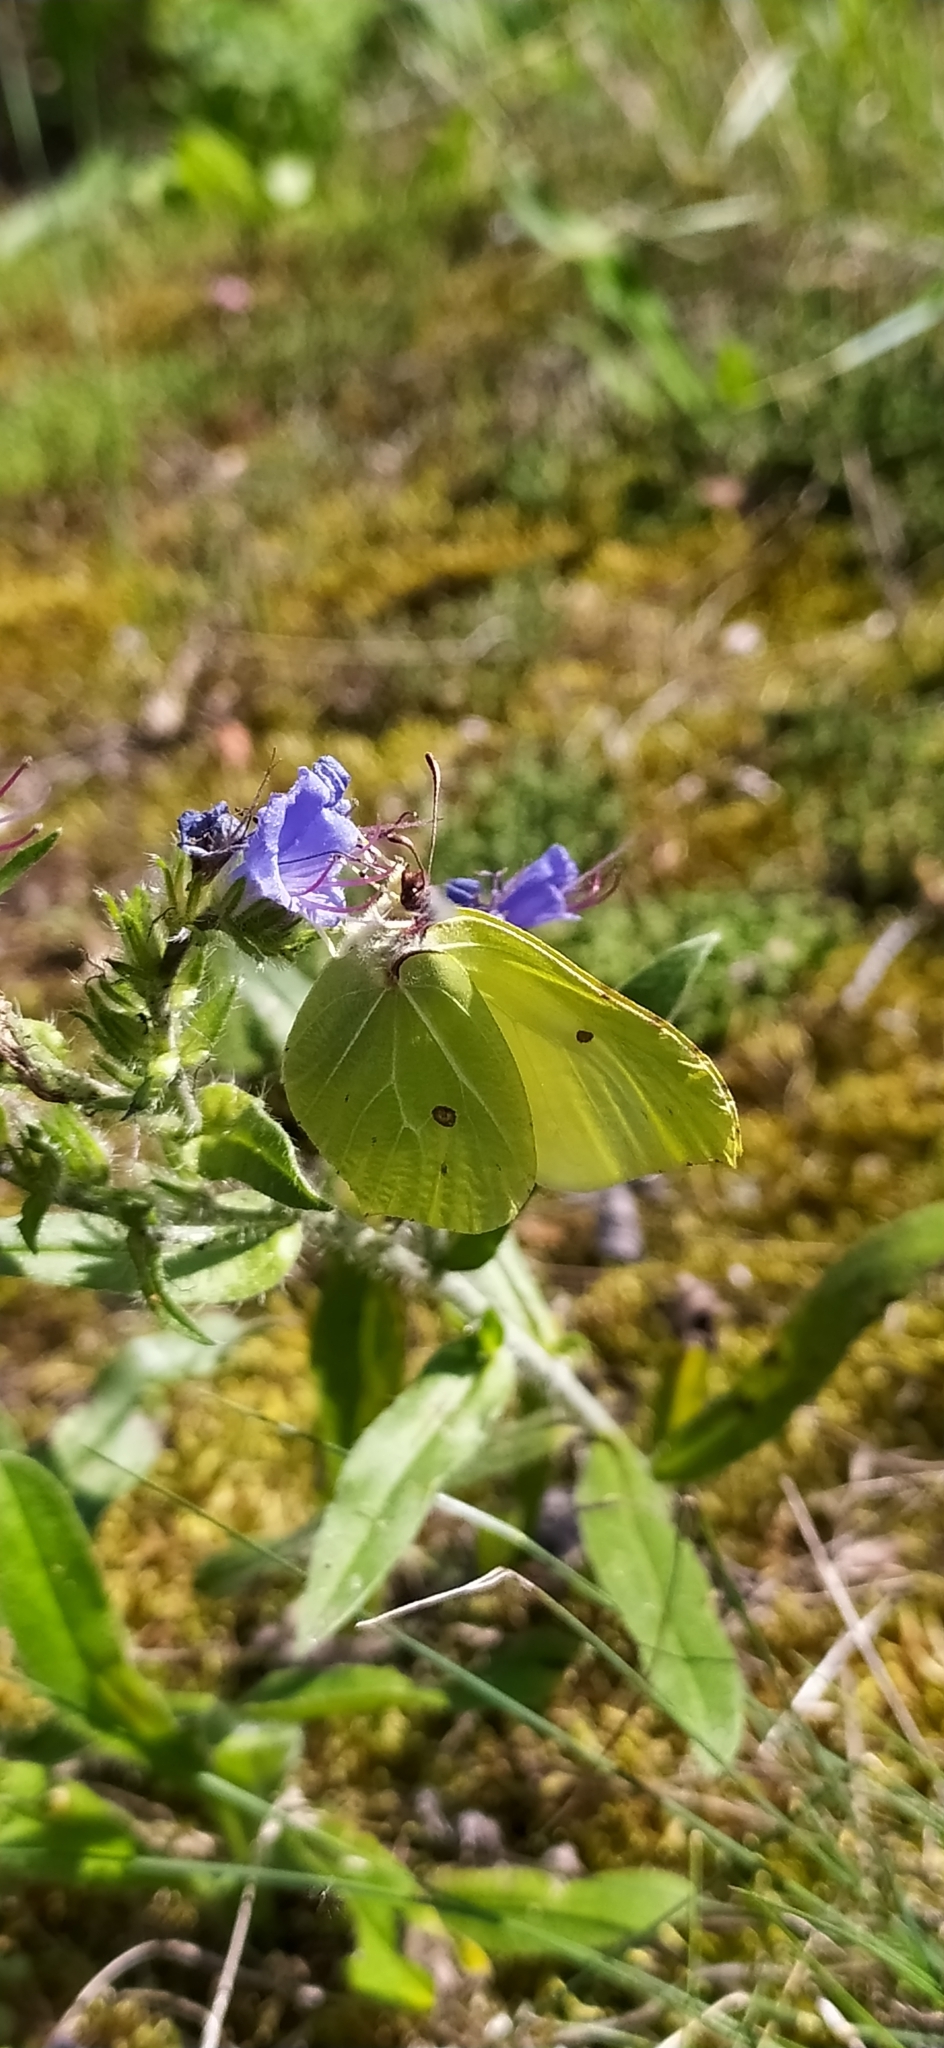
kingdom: Animalia
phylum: Arthropoda
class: Insecta
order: Lepidoptera
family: Pieridae
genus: Gonepteryx
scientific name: Gonepteryx rhamni
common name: Brimstone
